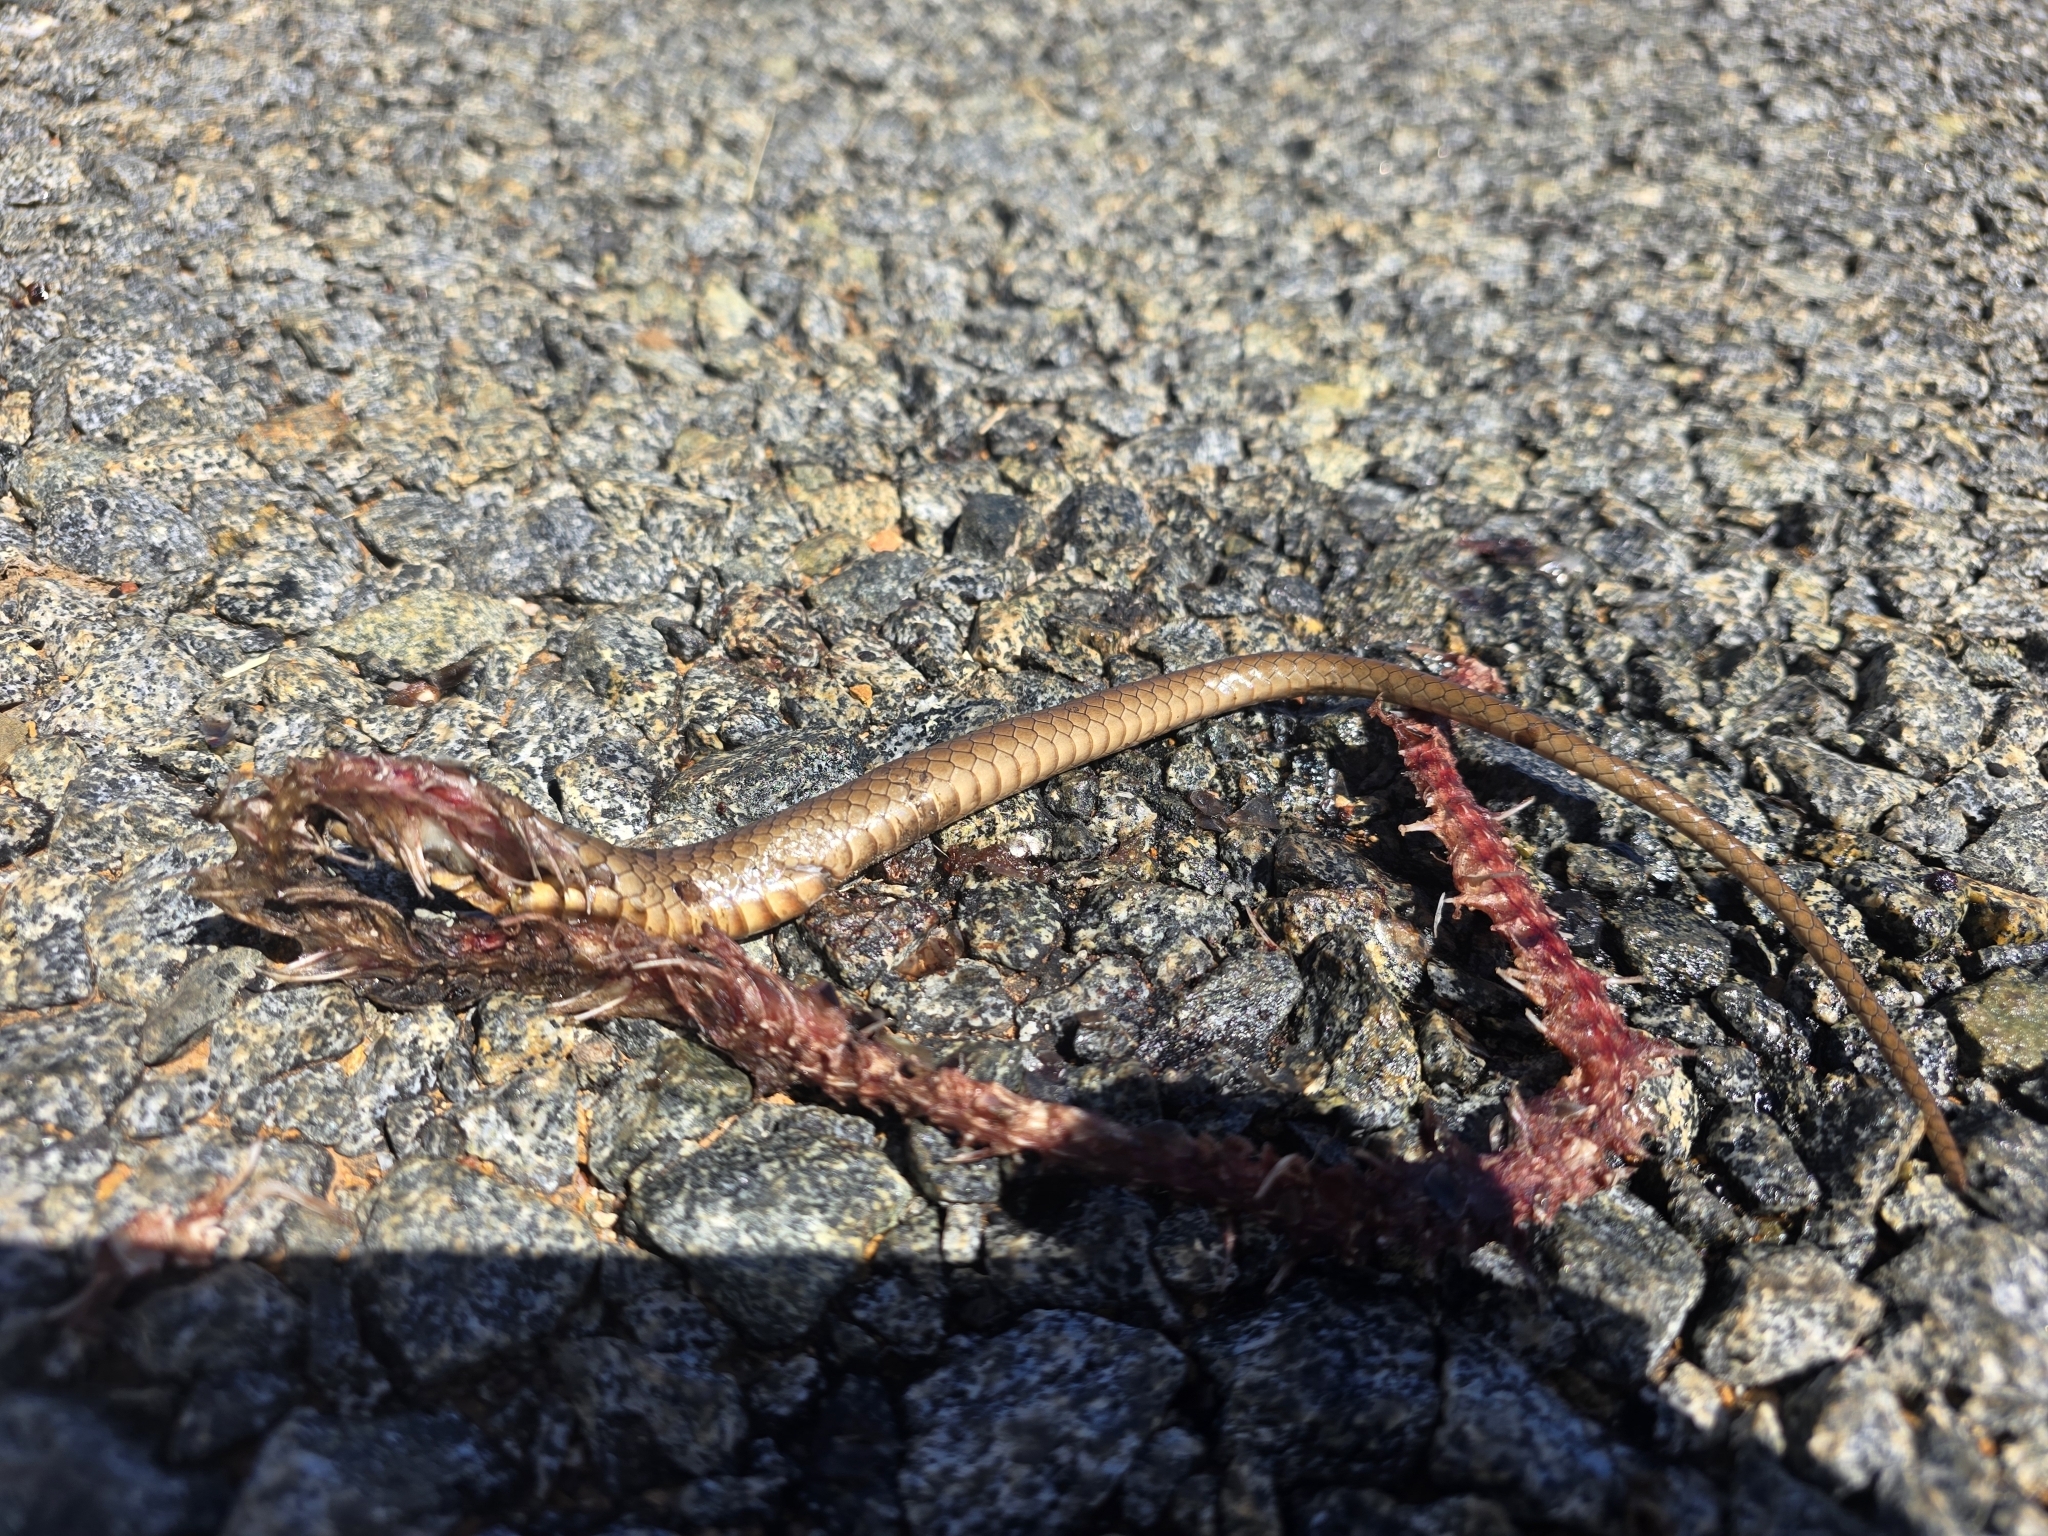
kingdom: Animalia
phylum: Chordata
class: Squamata
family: Elapidae
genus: Pseudonaja
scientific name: Pseudonaja textilis
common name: Eastern brown snake
